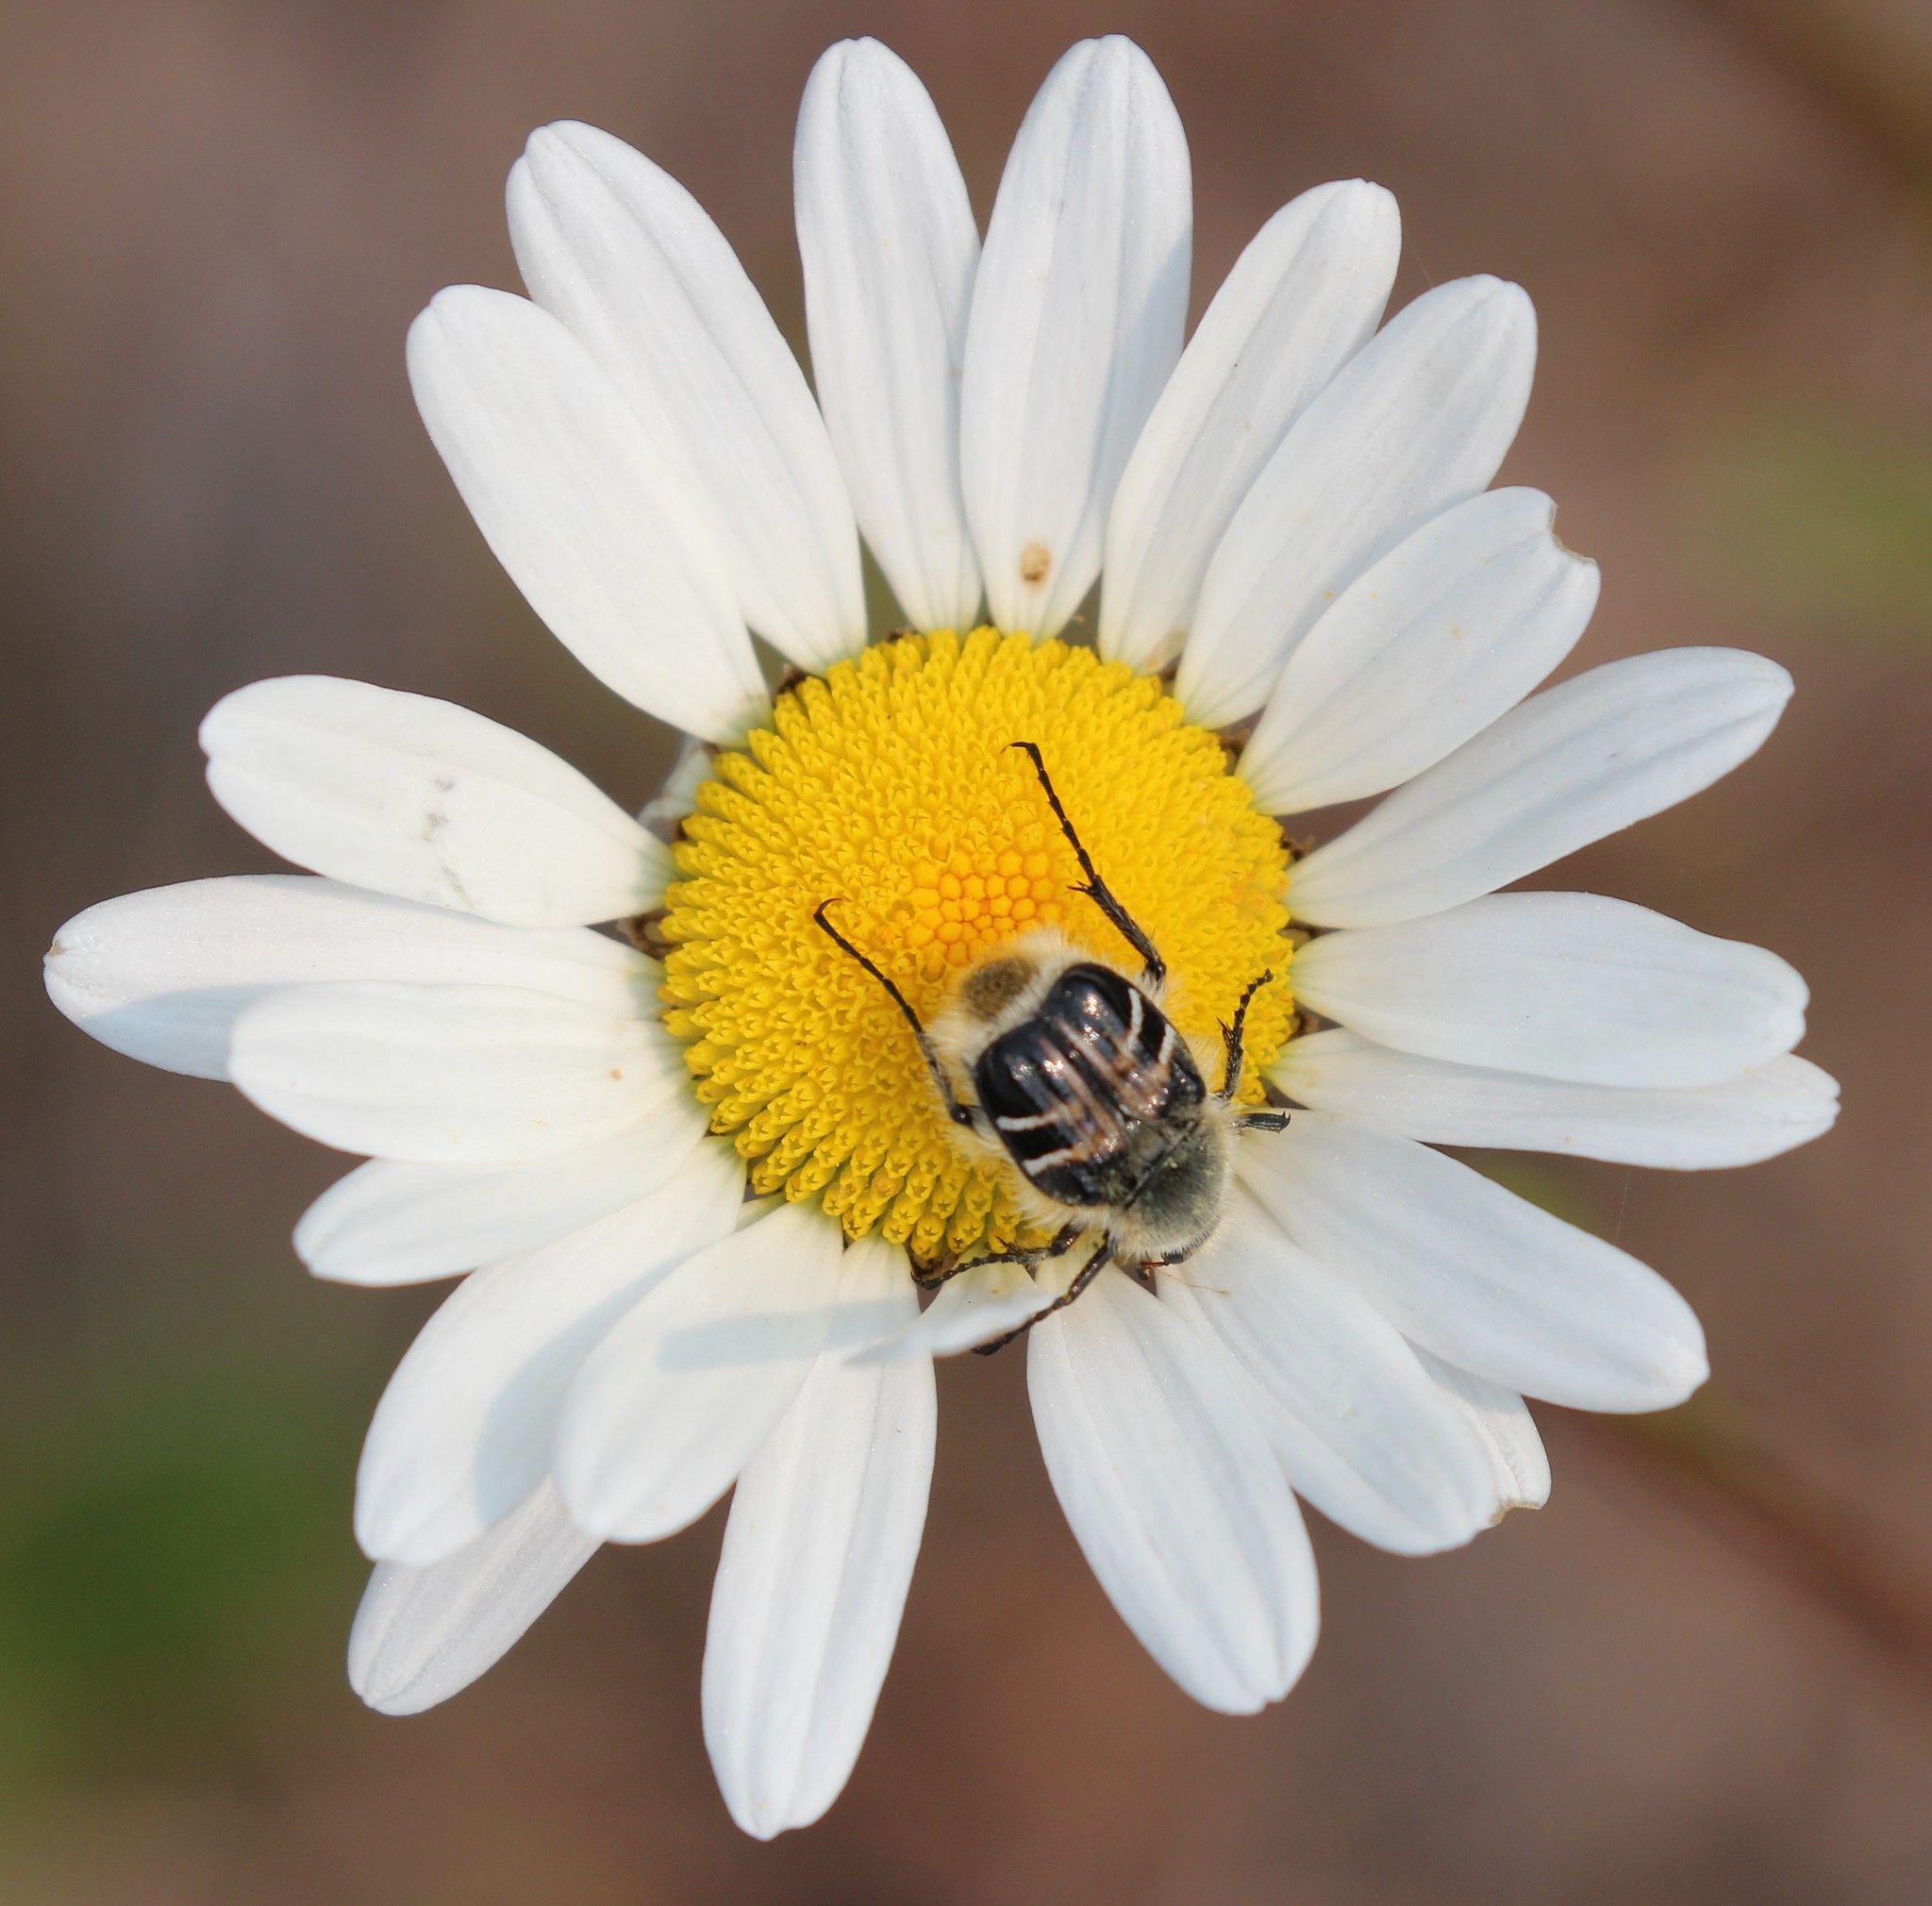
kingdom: Animalia
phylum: Arthropoda
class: Insecta
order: Coleoptera
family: Scarabaeidae
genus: Trichiotinus
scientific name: Trichiotinus assimilis
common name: Bee-mimic beetle
